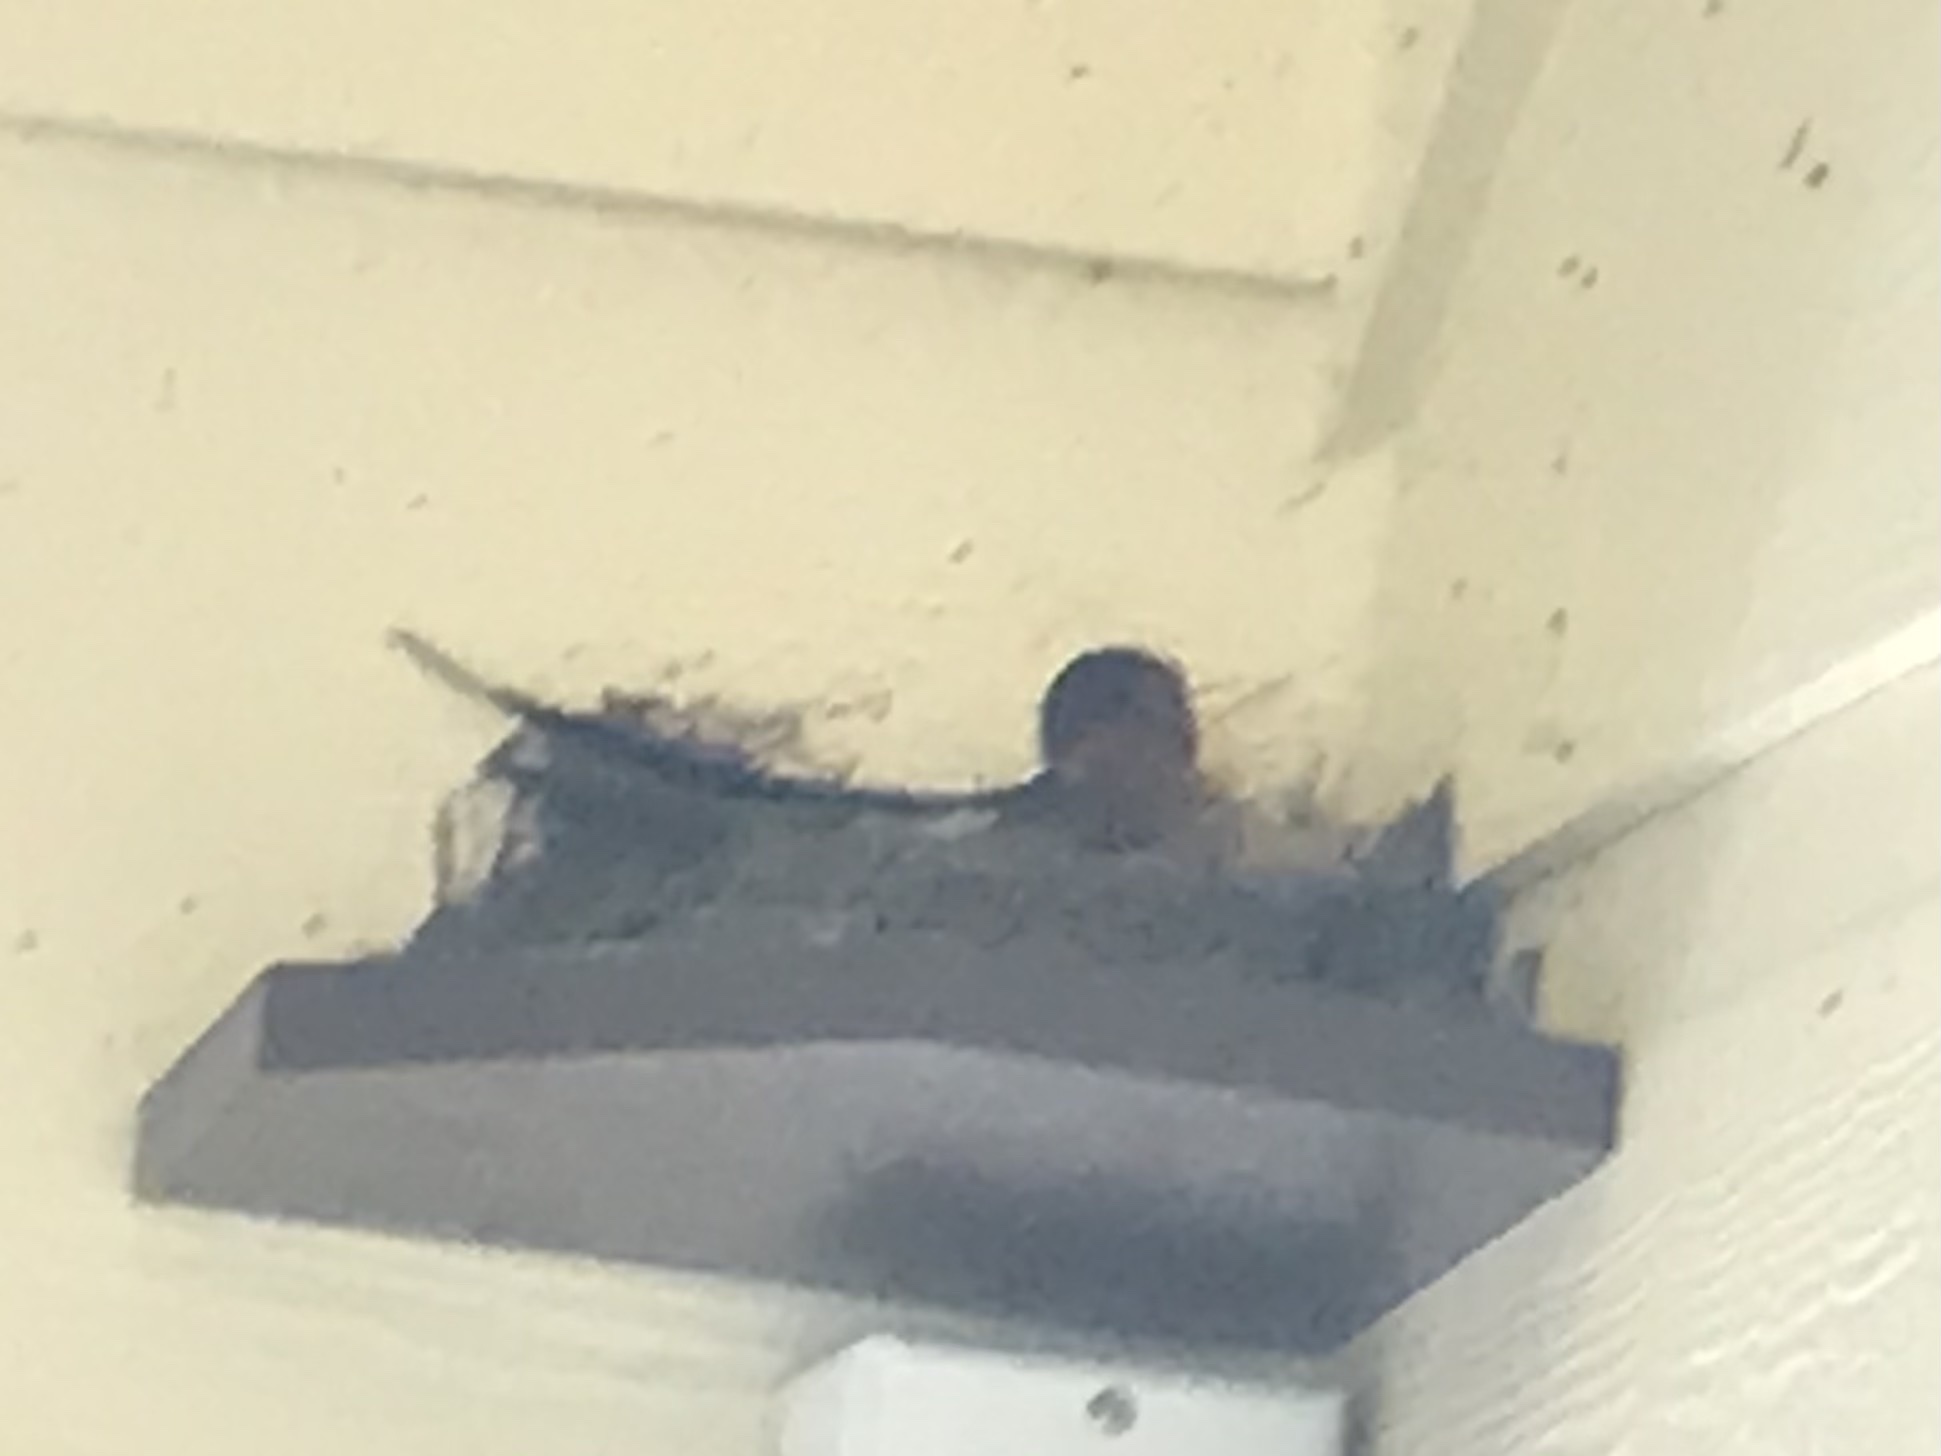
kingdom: Animalia
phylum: Chordata
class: Aves
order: Passeriformes
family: Hirundinidae
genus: Hirundo
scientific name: Hirundo rustica
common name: Barn swallow
